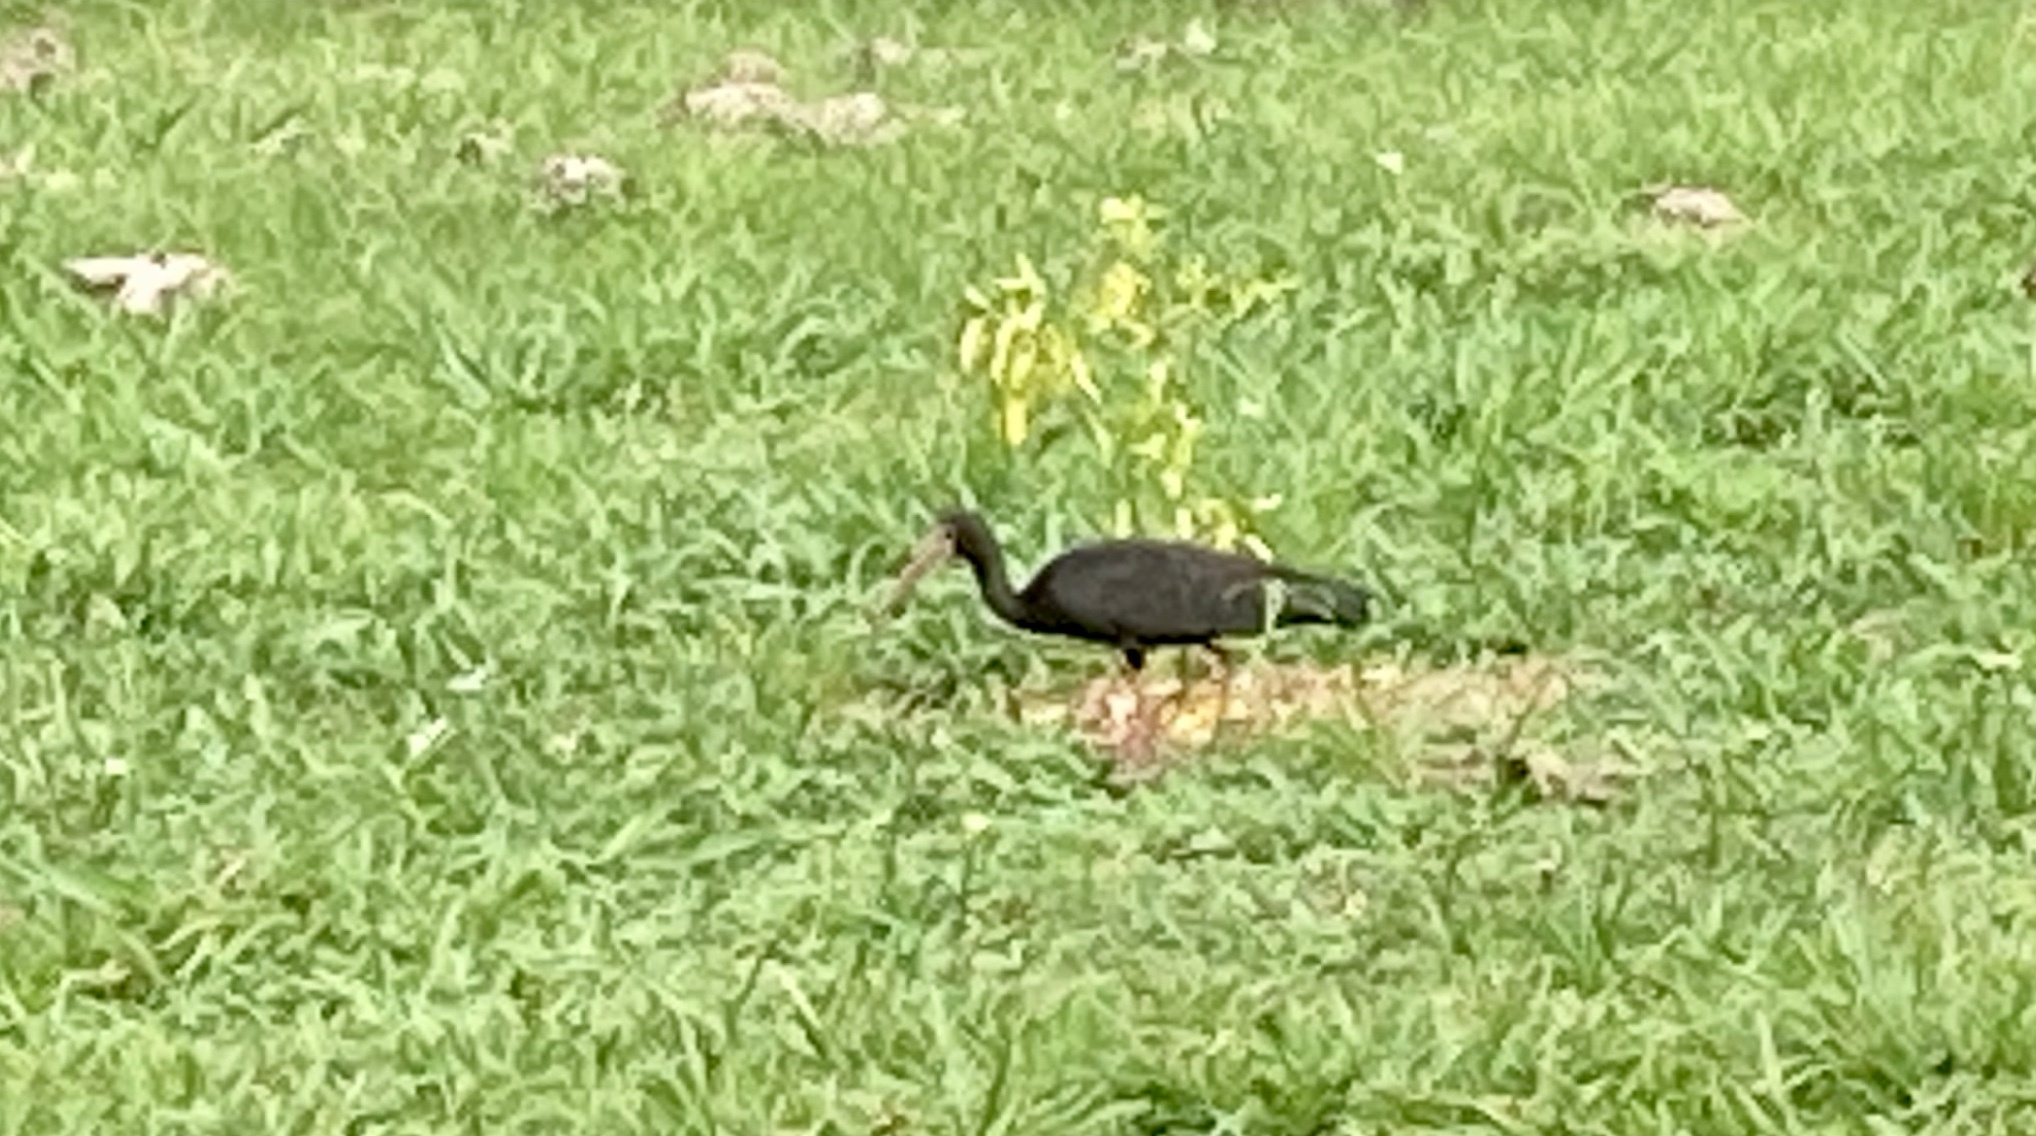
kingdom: Animalia
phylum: Chordata
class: Aves
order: Pelecaniformes
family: Threskiornithidae
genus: Phimosus
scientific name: Phimosus infuscatus
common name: Bare-faced ibis
